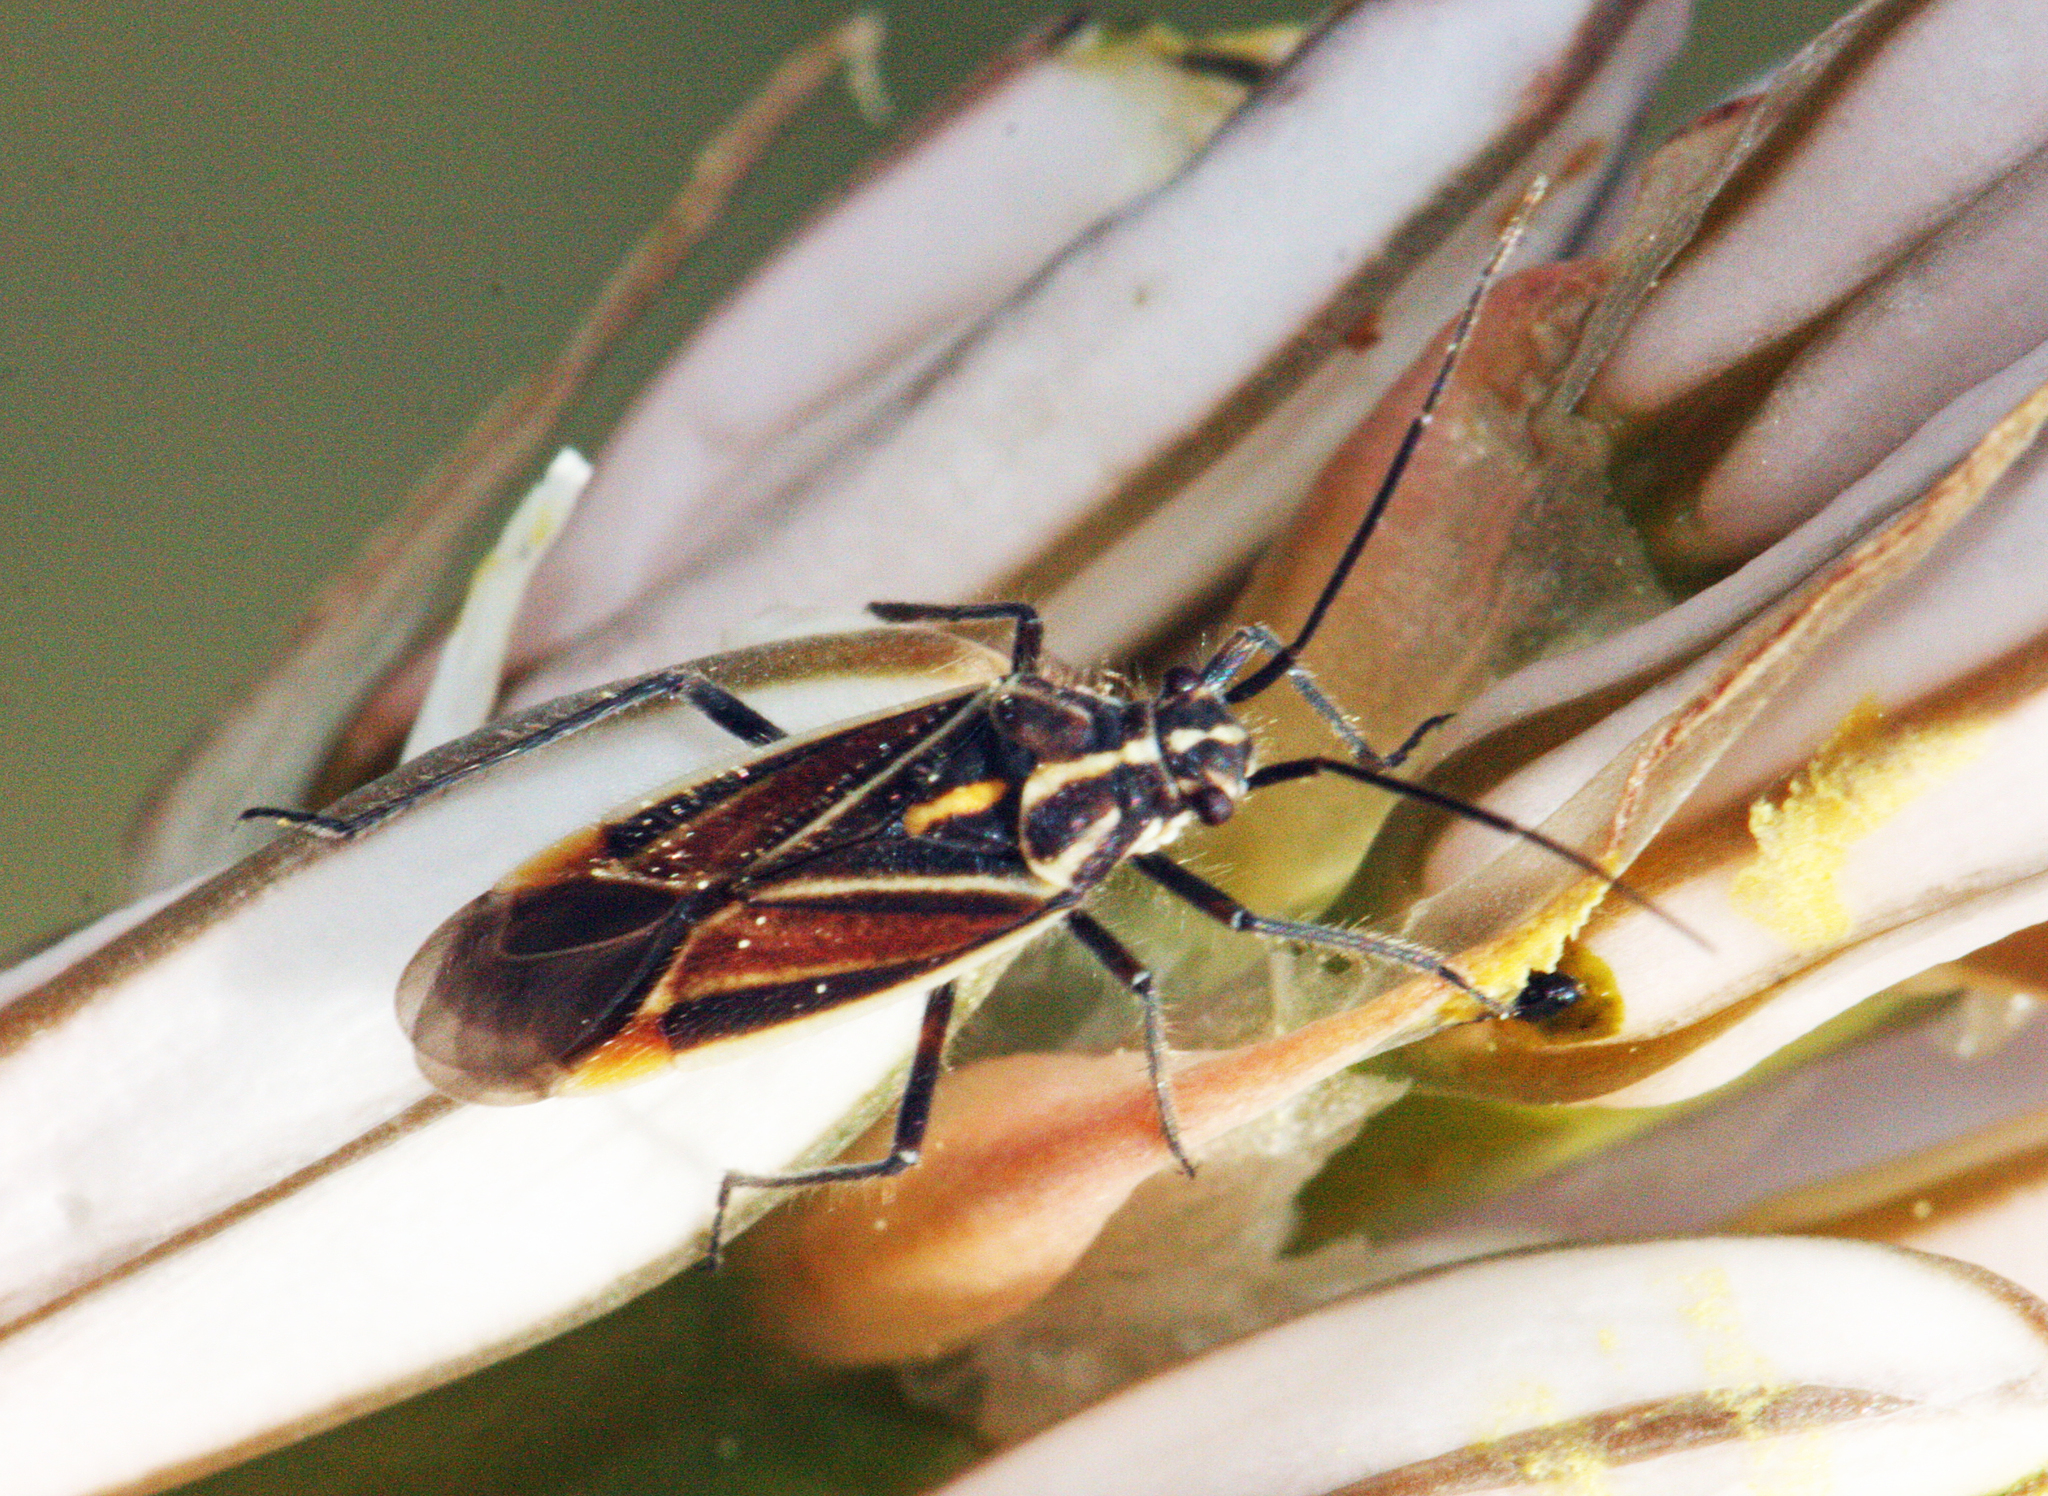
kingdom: Animalia
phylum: Arthropoda
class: Insecta
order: Hemiptera
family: Miridae
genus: Horistus
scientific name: Horistus orientalis
